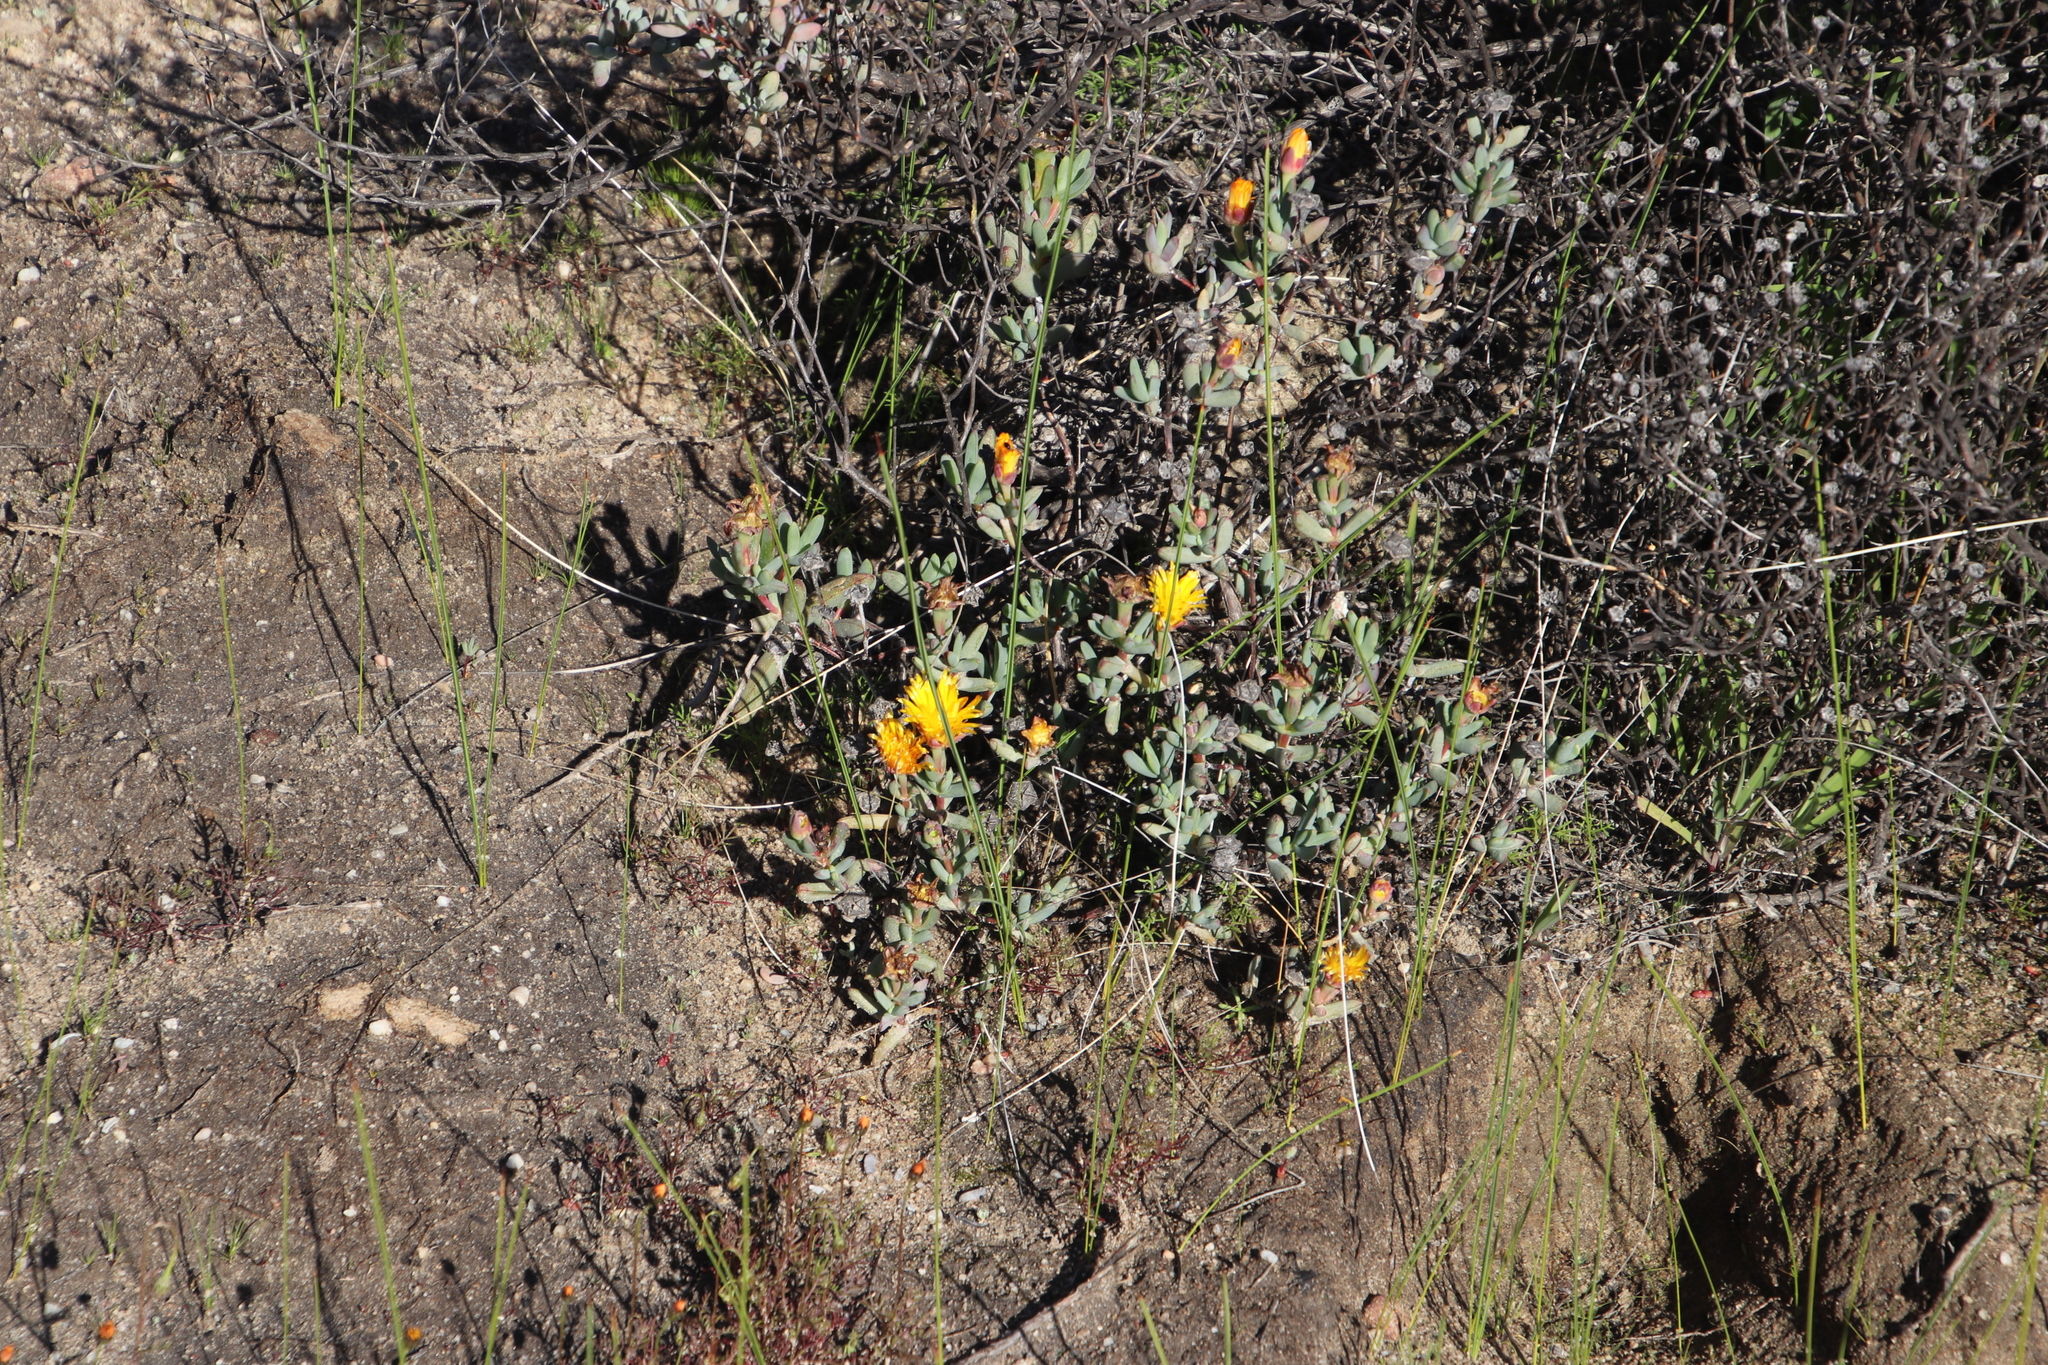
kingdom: Plantae
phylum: Tracheophyta
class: Magnoliopsida
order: Caryophyllales
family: Aizoaceae
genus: Lampranthus
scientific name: Lampranthus glaucus
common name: Noonflower
